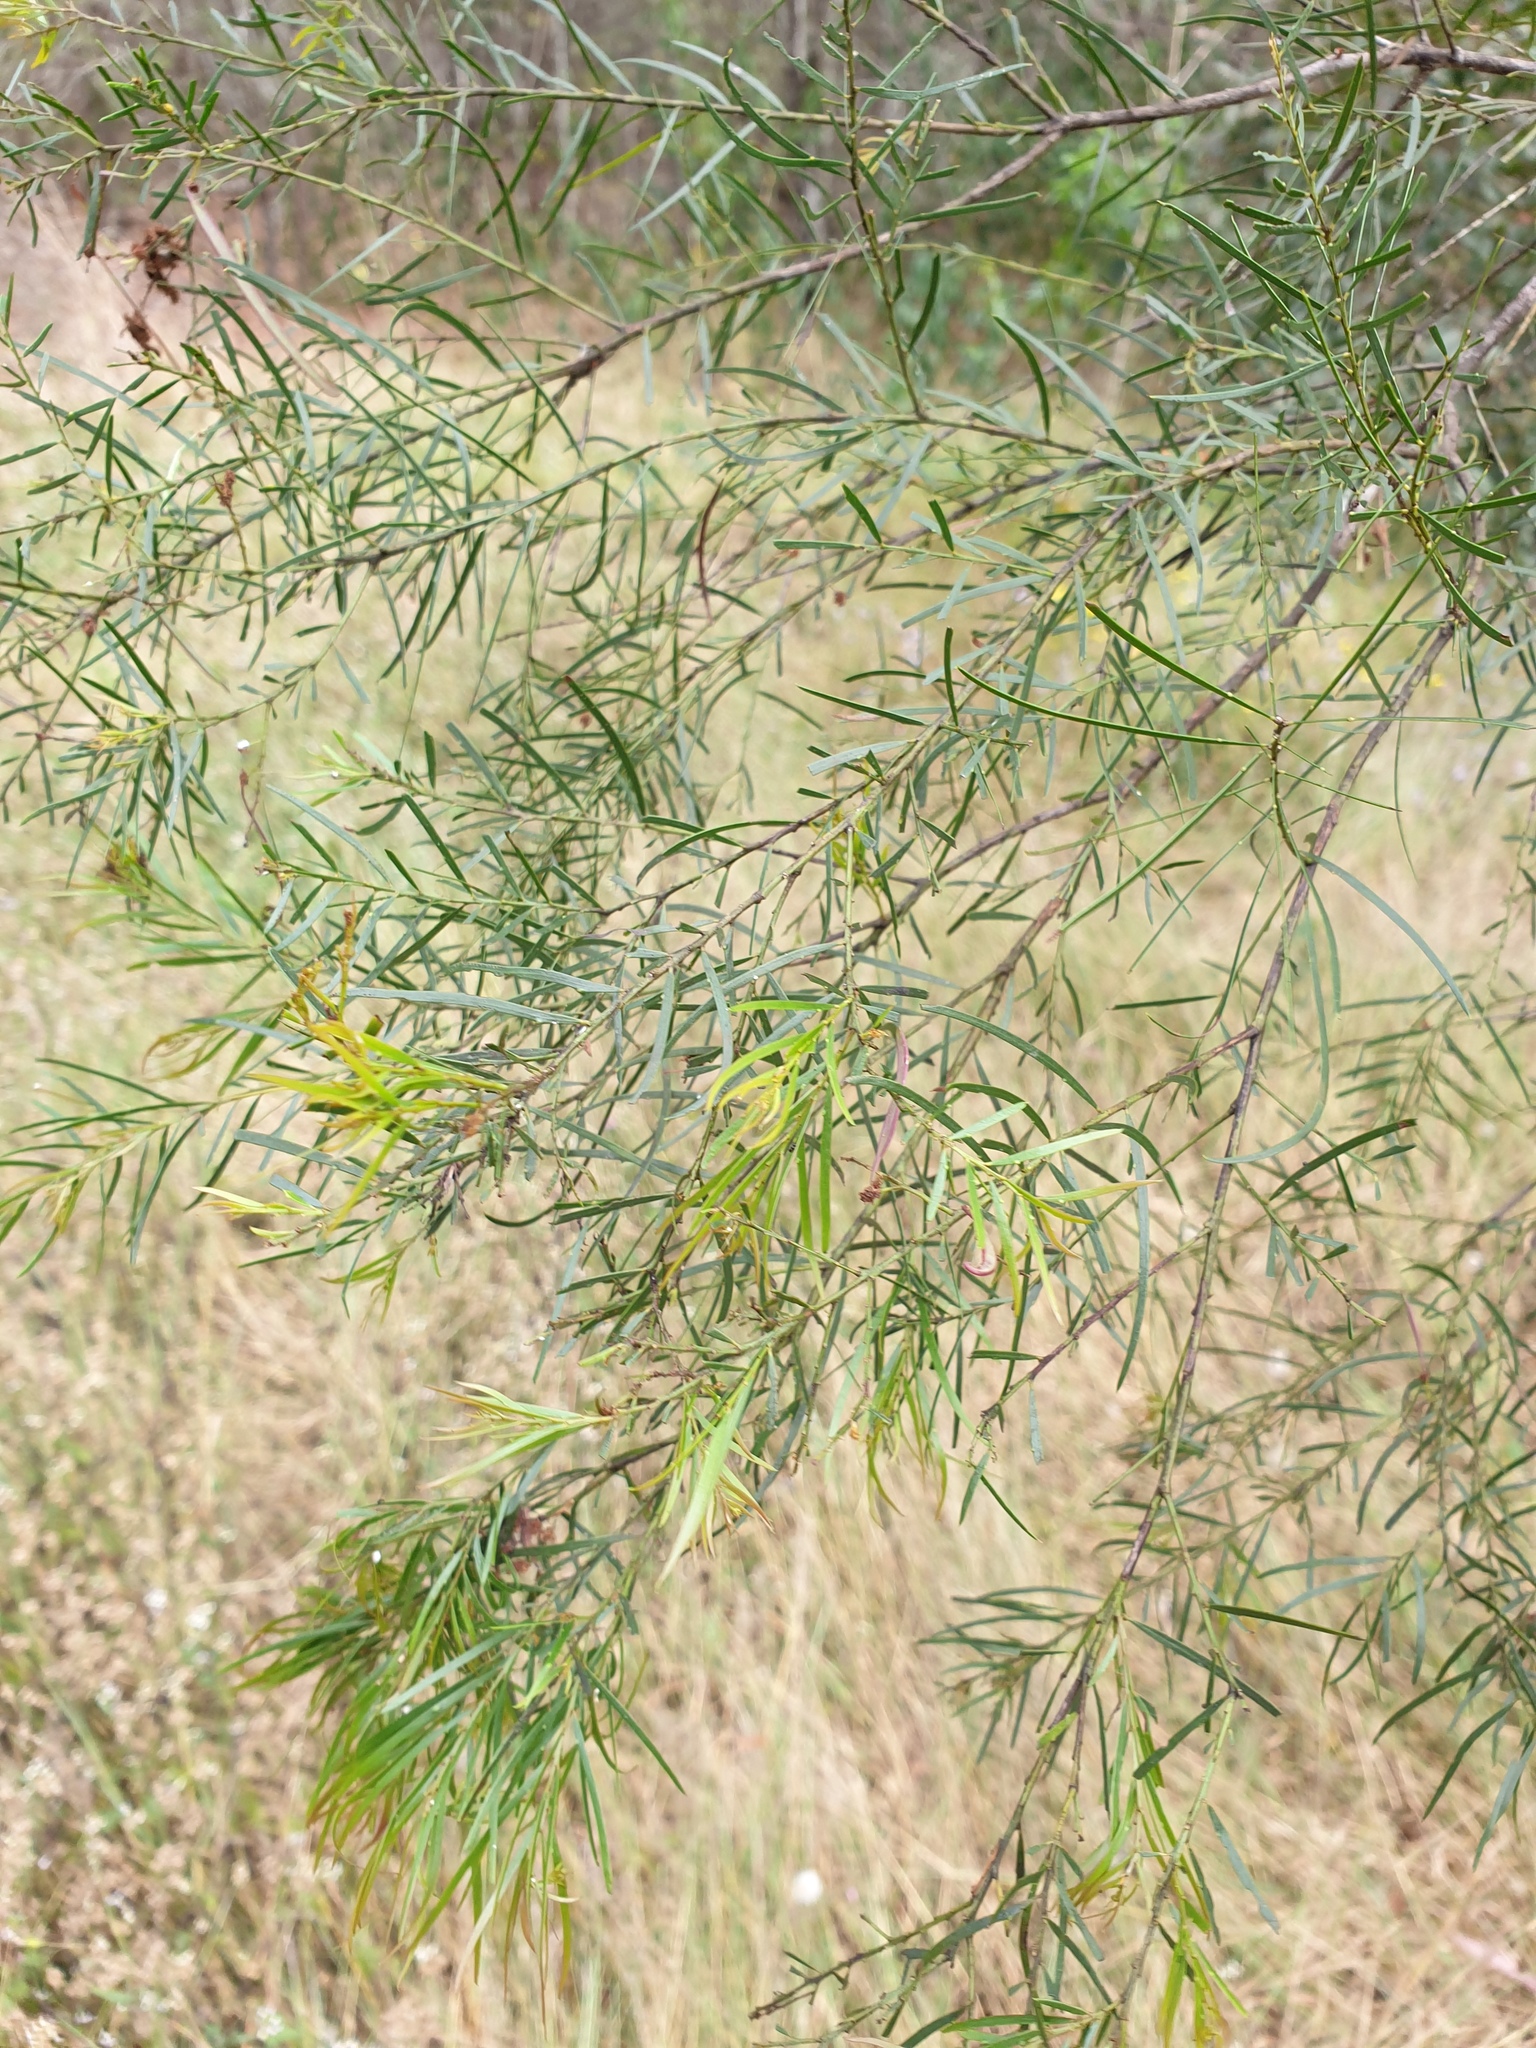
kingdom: Plantae
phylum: Tracheophyta
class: Magnoliopsida
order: Fabales
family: Fabaceae
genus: Acacia
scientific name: Acacia fimbriata
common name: Brisbane golden wattle
